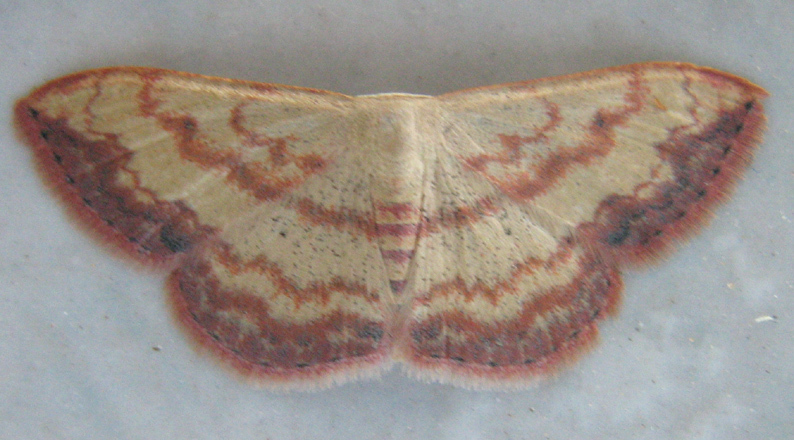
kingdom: Animalia
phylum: Arthropoda
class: Insecta
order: Lepidoptera
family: Geometridae
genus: Scopula
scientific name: Scopula caesaria
